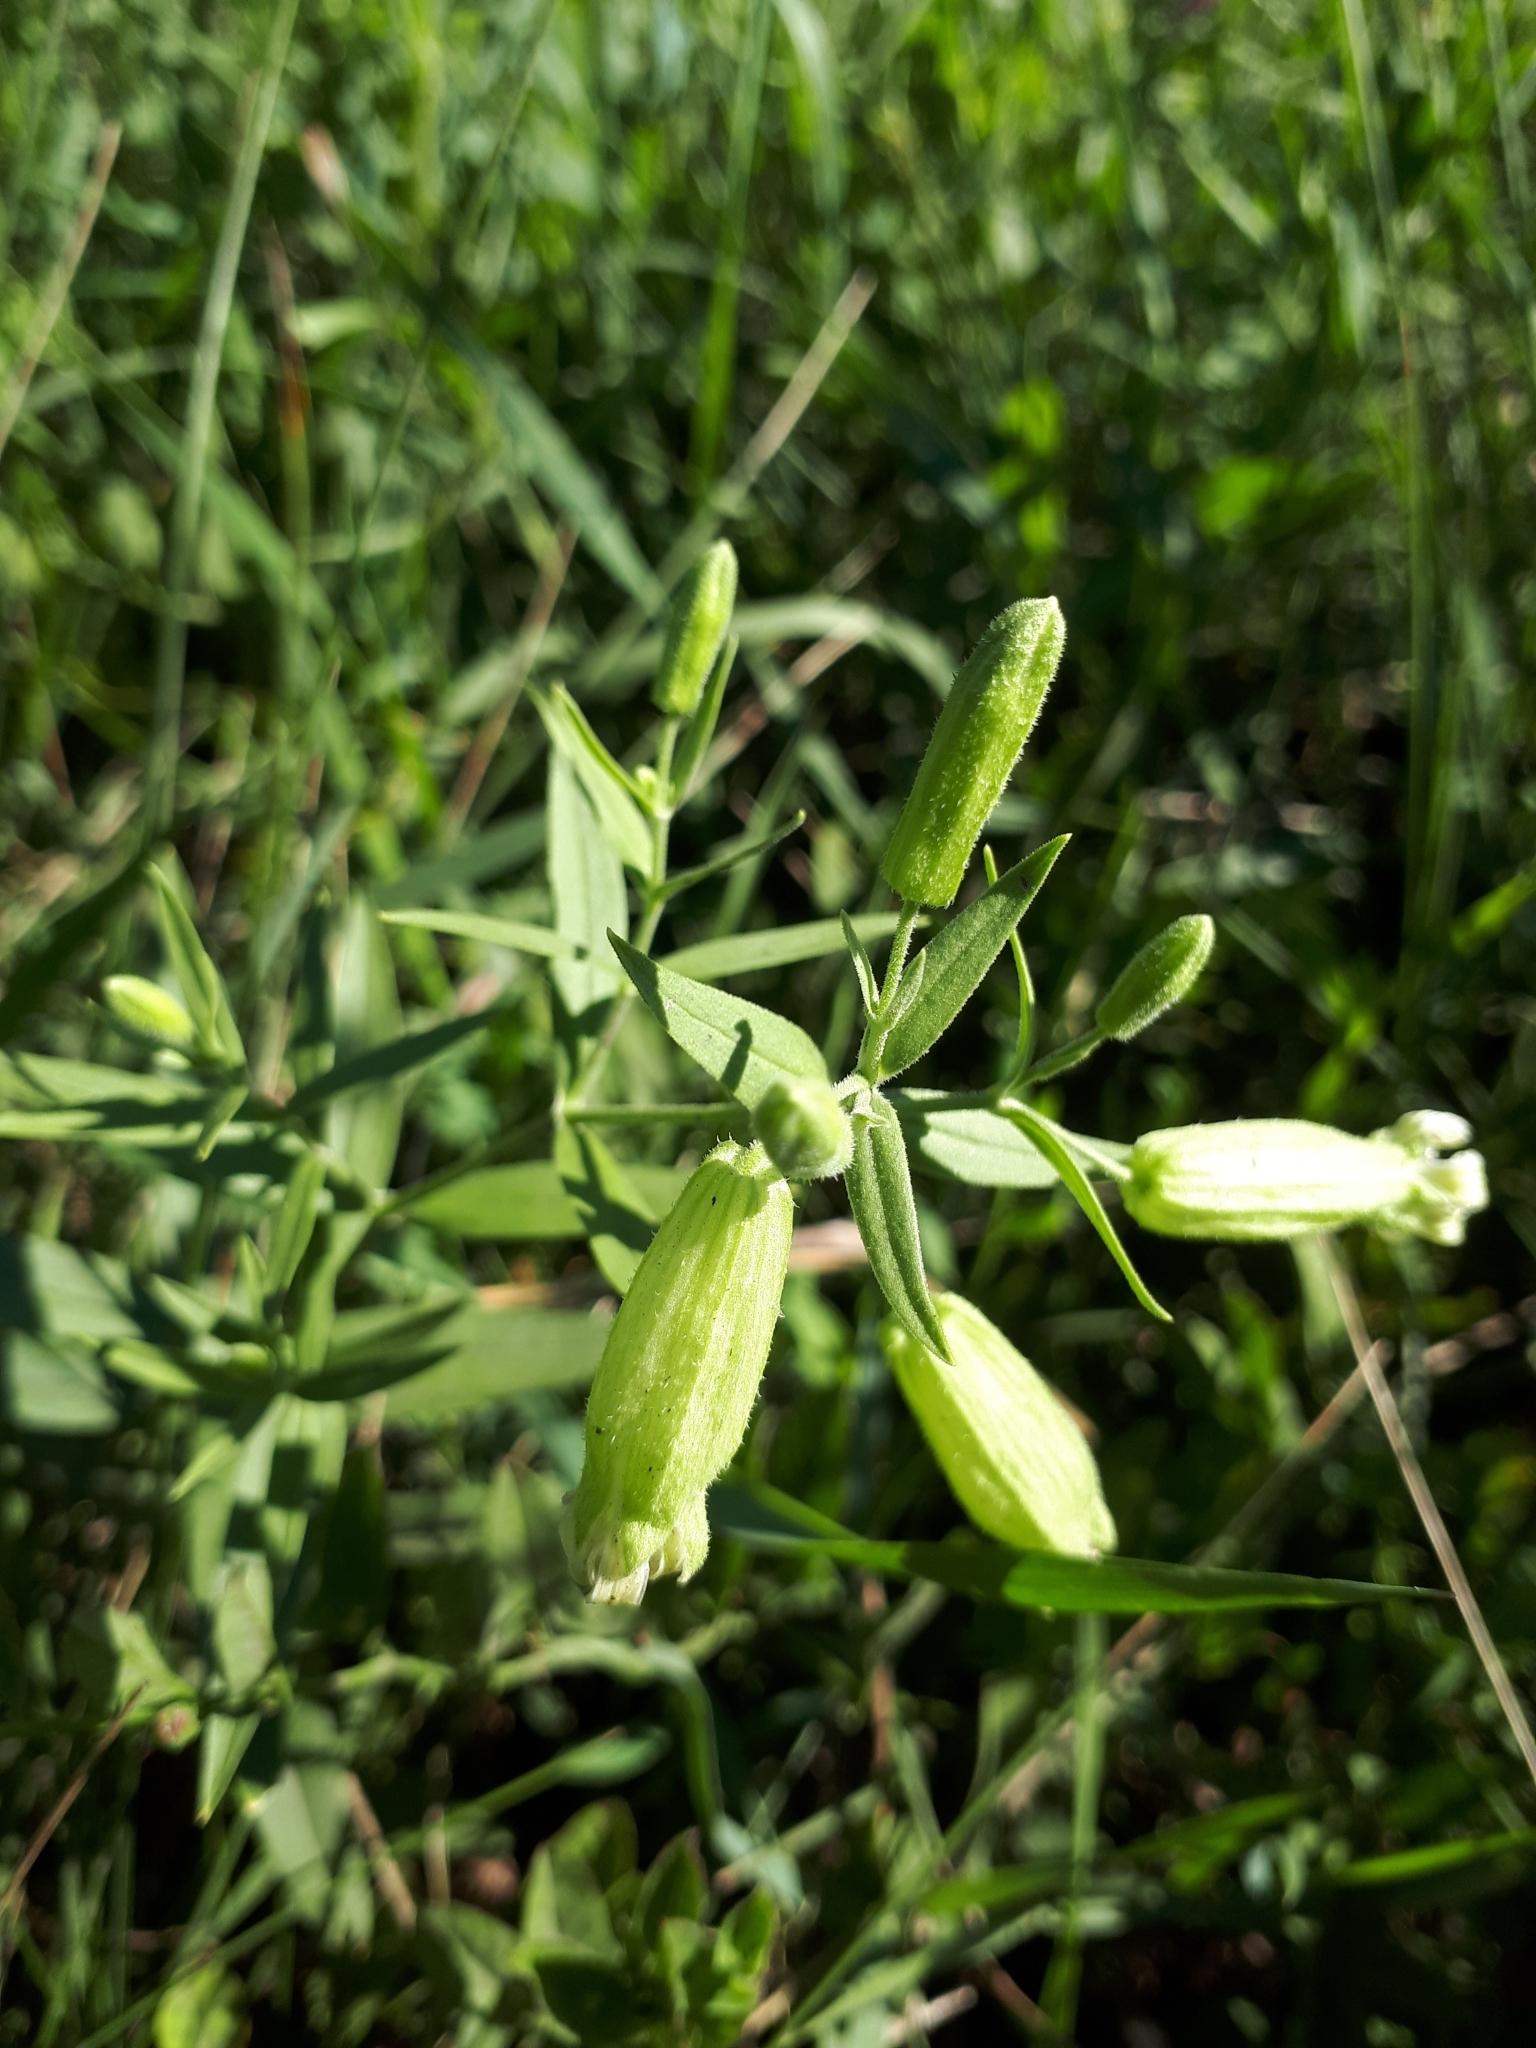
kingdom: Plantae
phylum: Tracheophyta
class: Magnoliopsida
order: Caryophyllales
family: Caryophyllaceae
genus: Silene
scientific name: Silene procumbens
